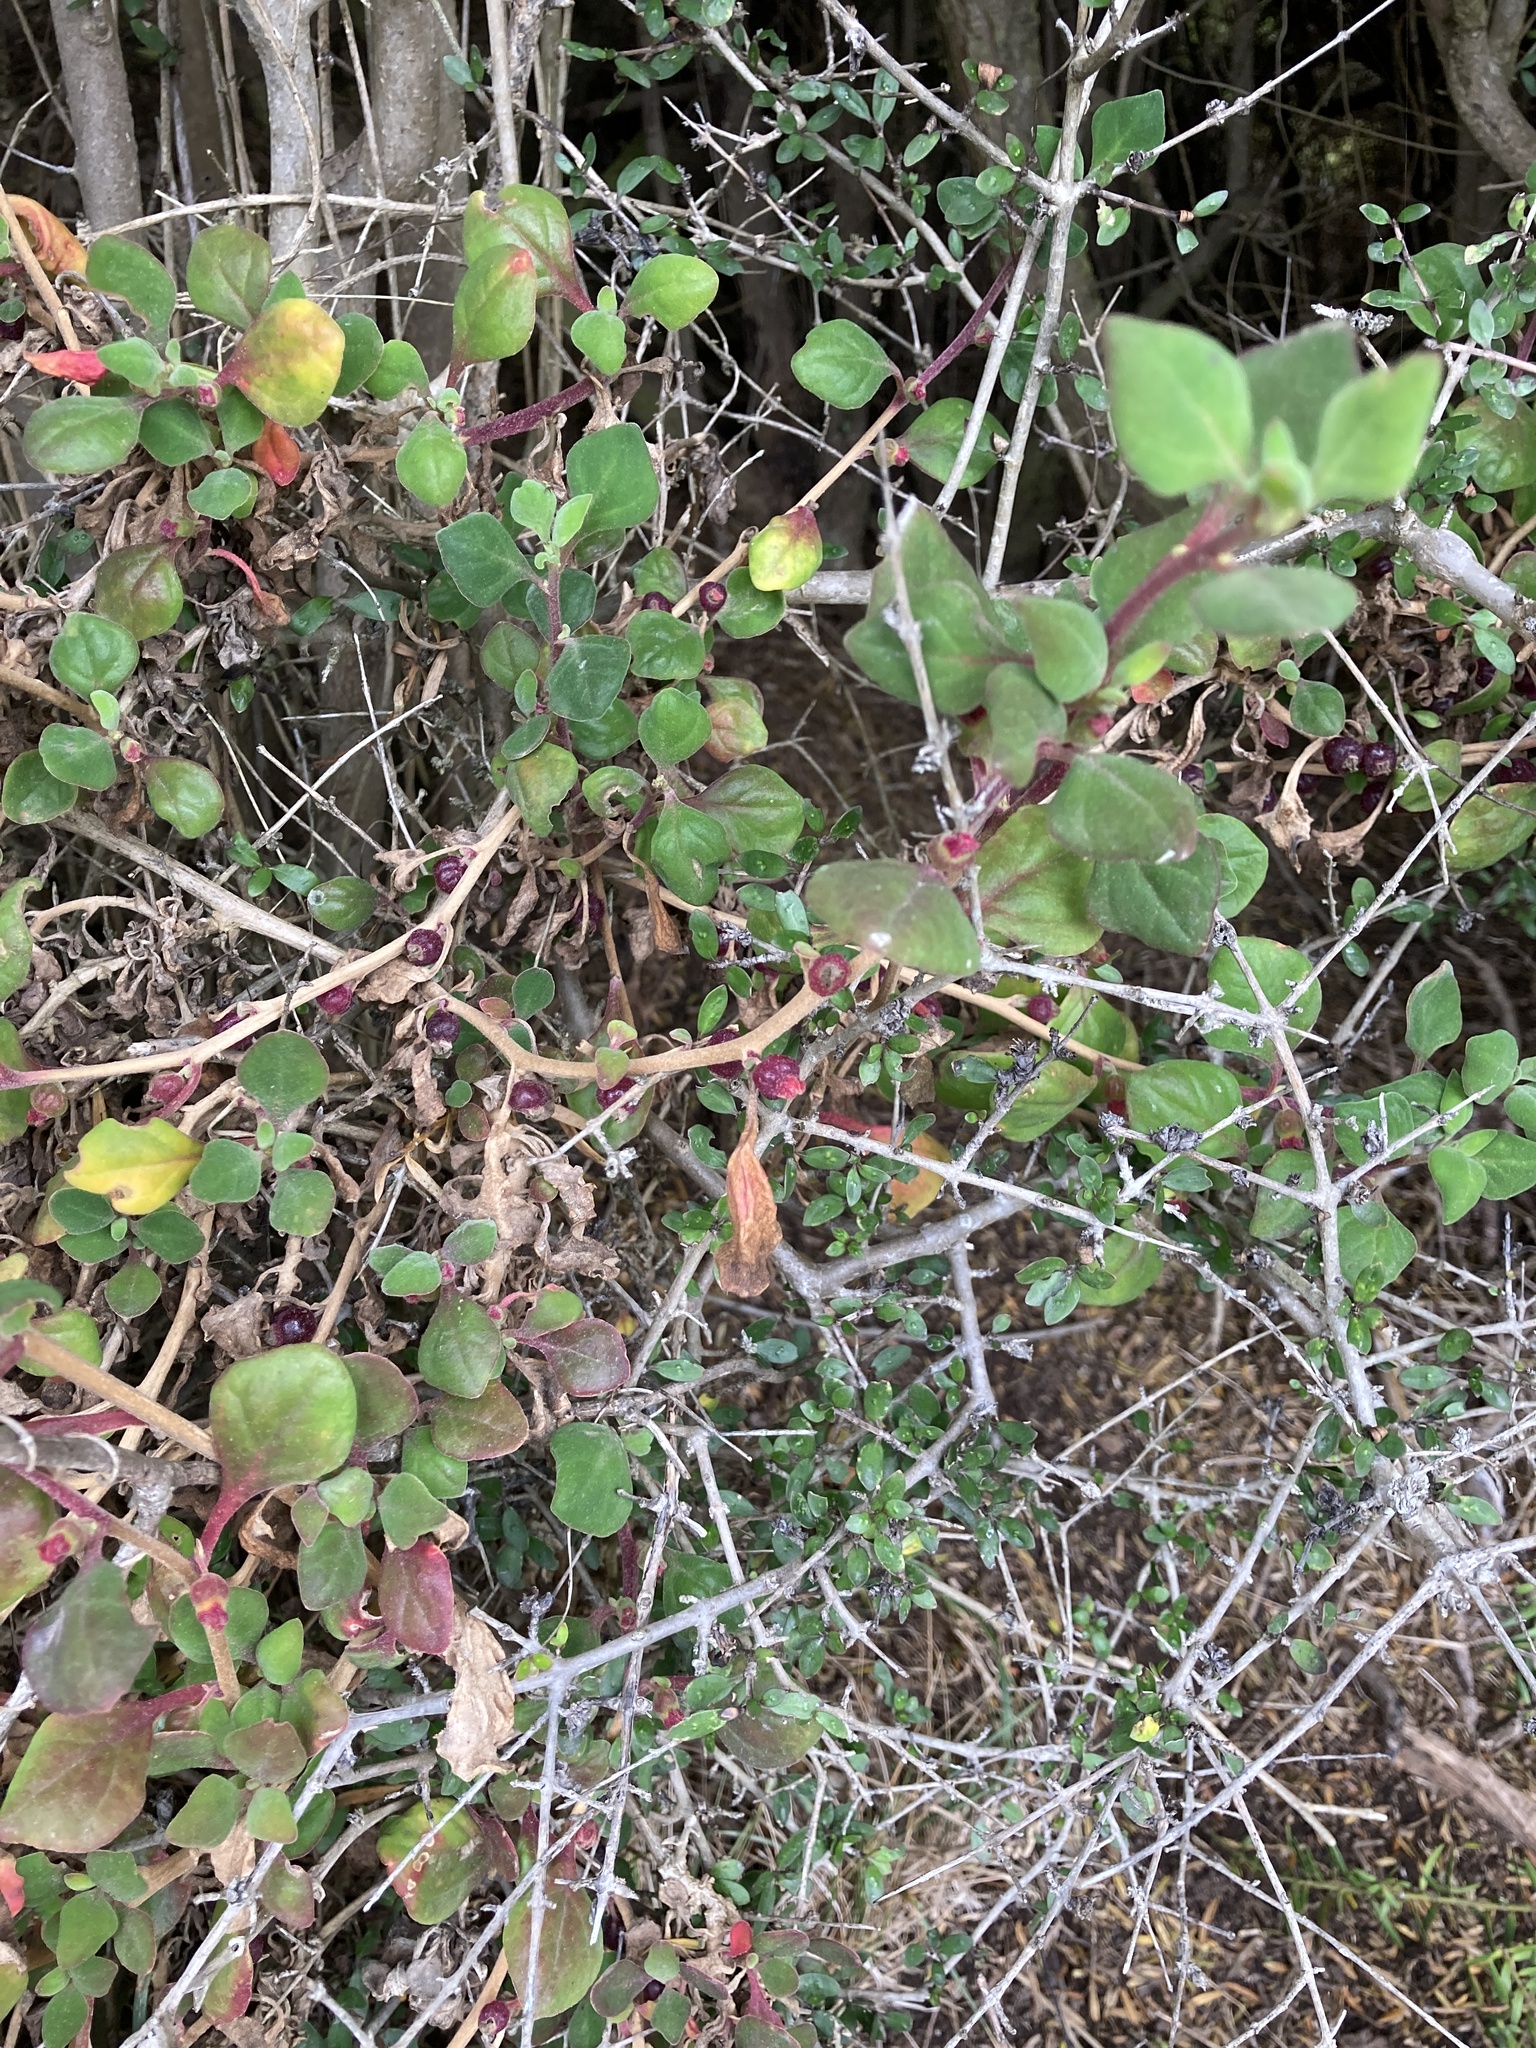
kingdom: Plantae
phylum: Tracheophyta
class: Magnoliopsida
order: Caryophyllales
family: Aizoaceae
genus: Tetragonia
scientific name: Tetragonia implexicoma
